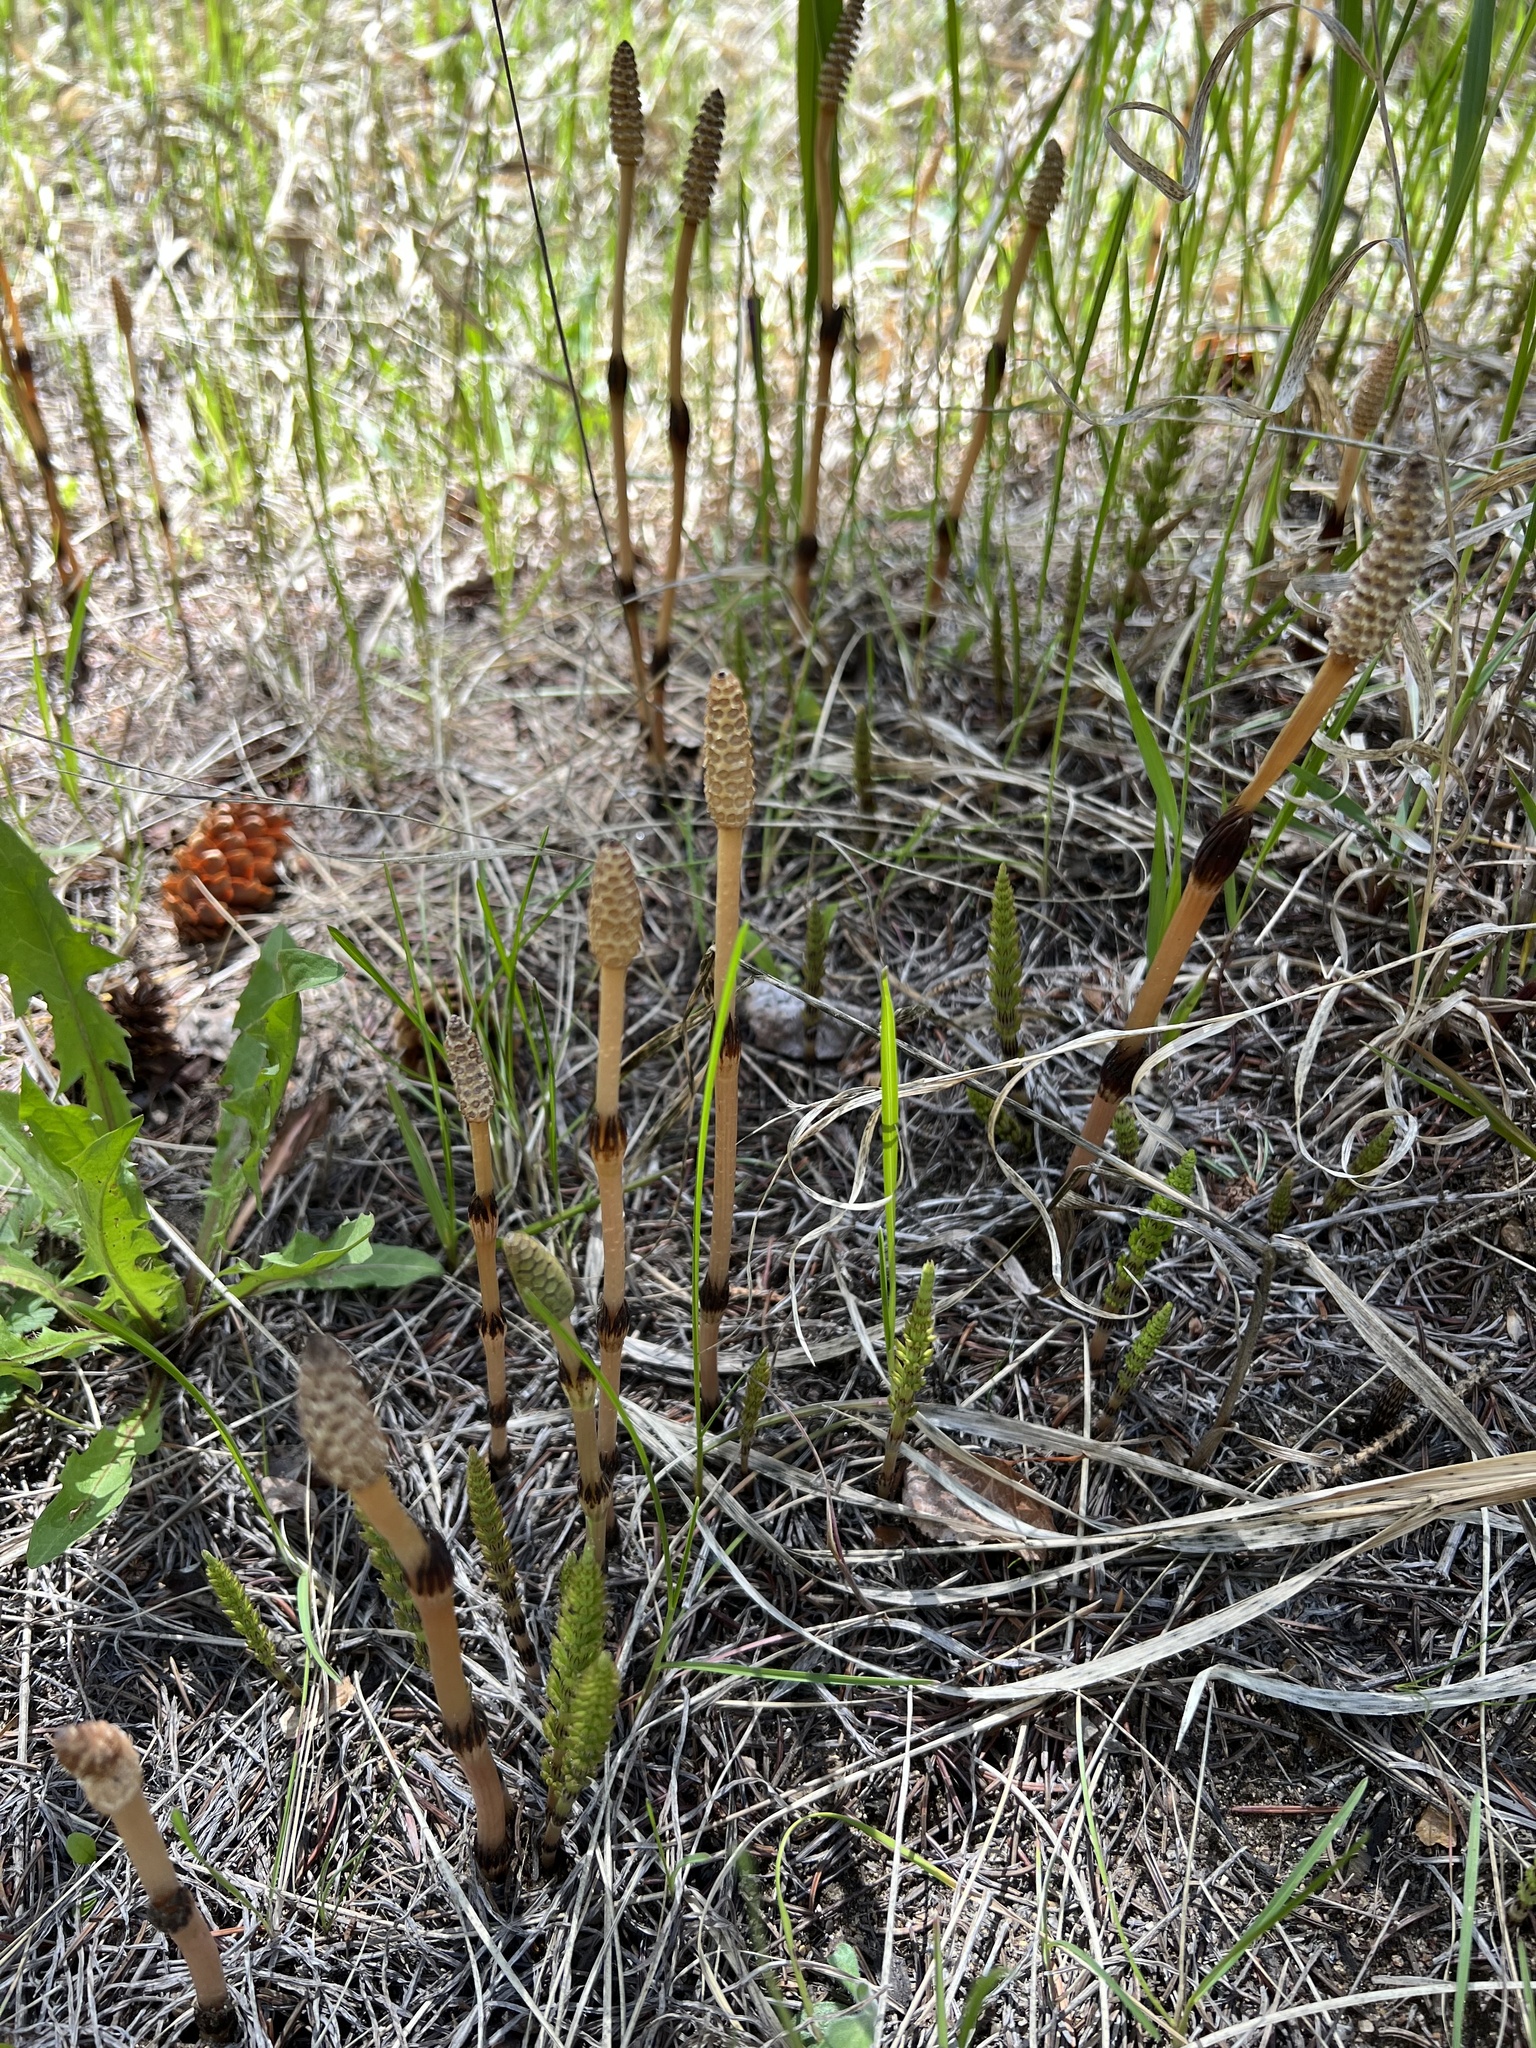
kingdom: Plantae
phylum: Tracheophyta
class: Polypodiopsida
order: Equisetales
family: Equisetaceae
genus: Equisetum
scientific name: Equisetum arvense
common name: Field horsetail
